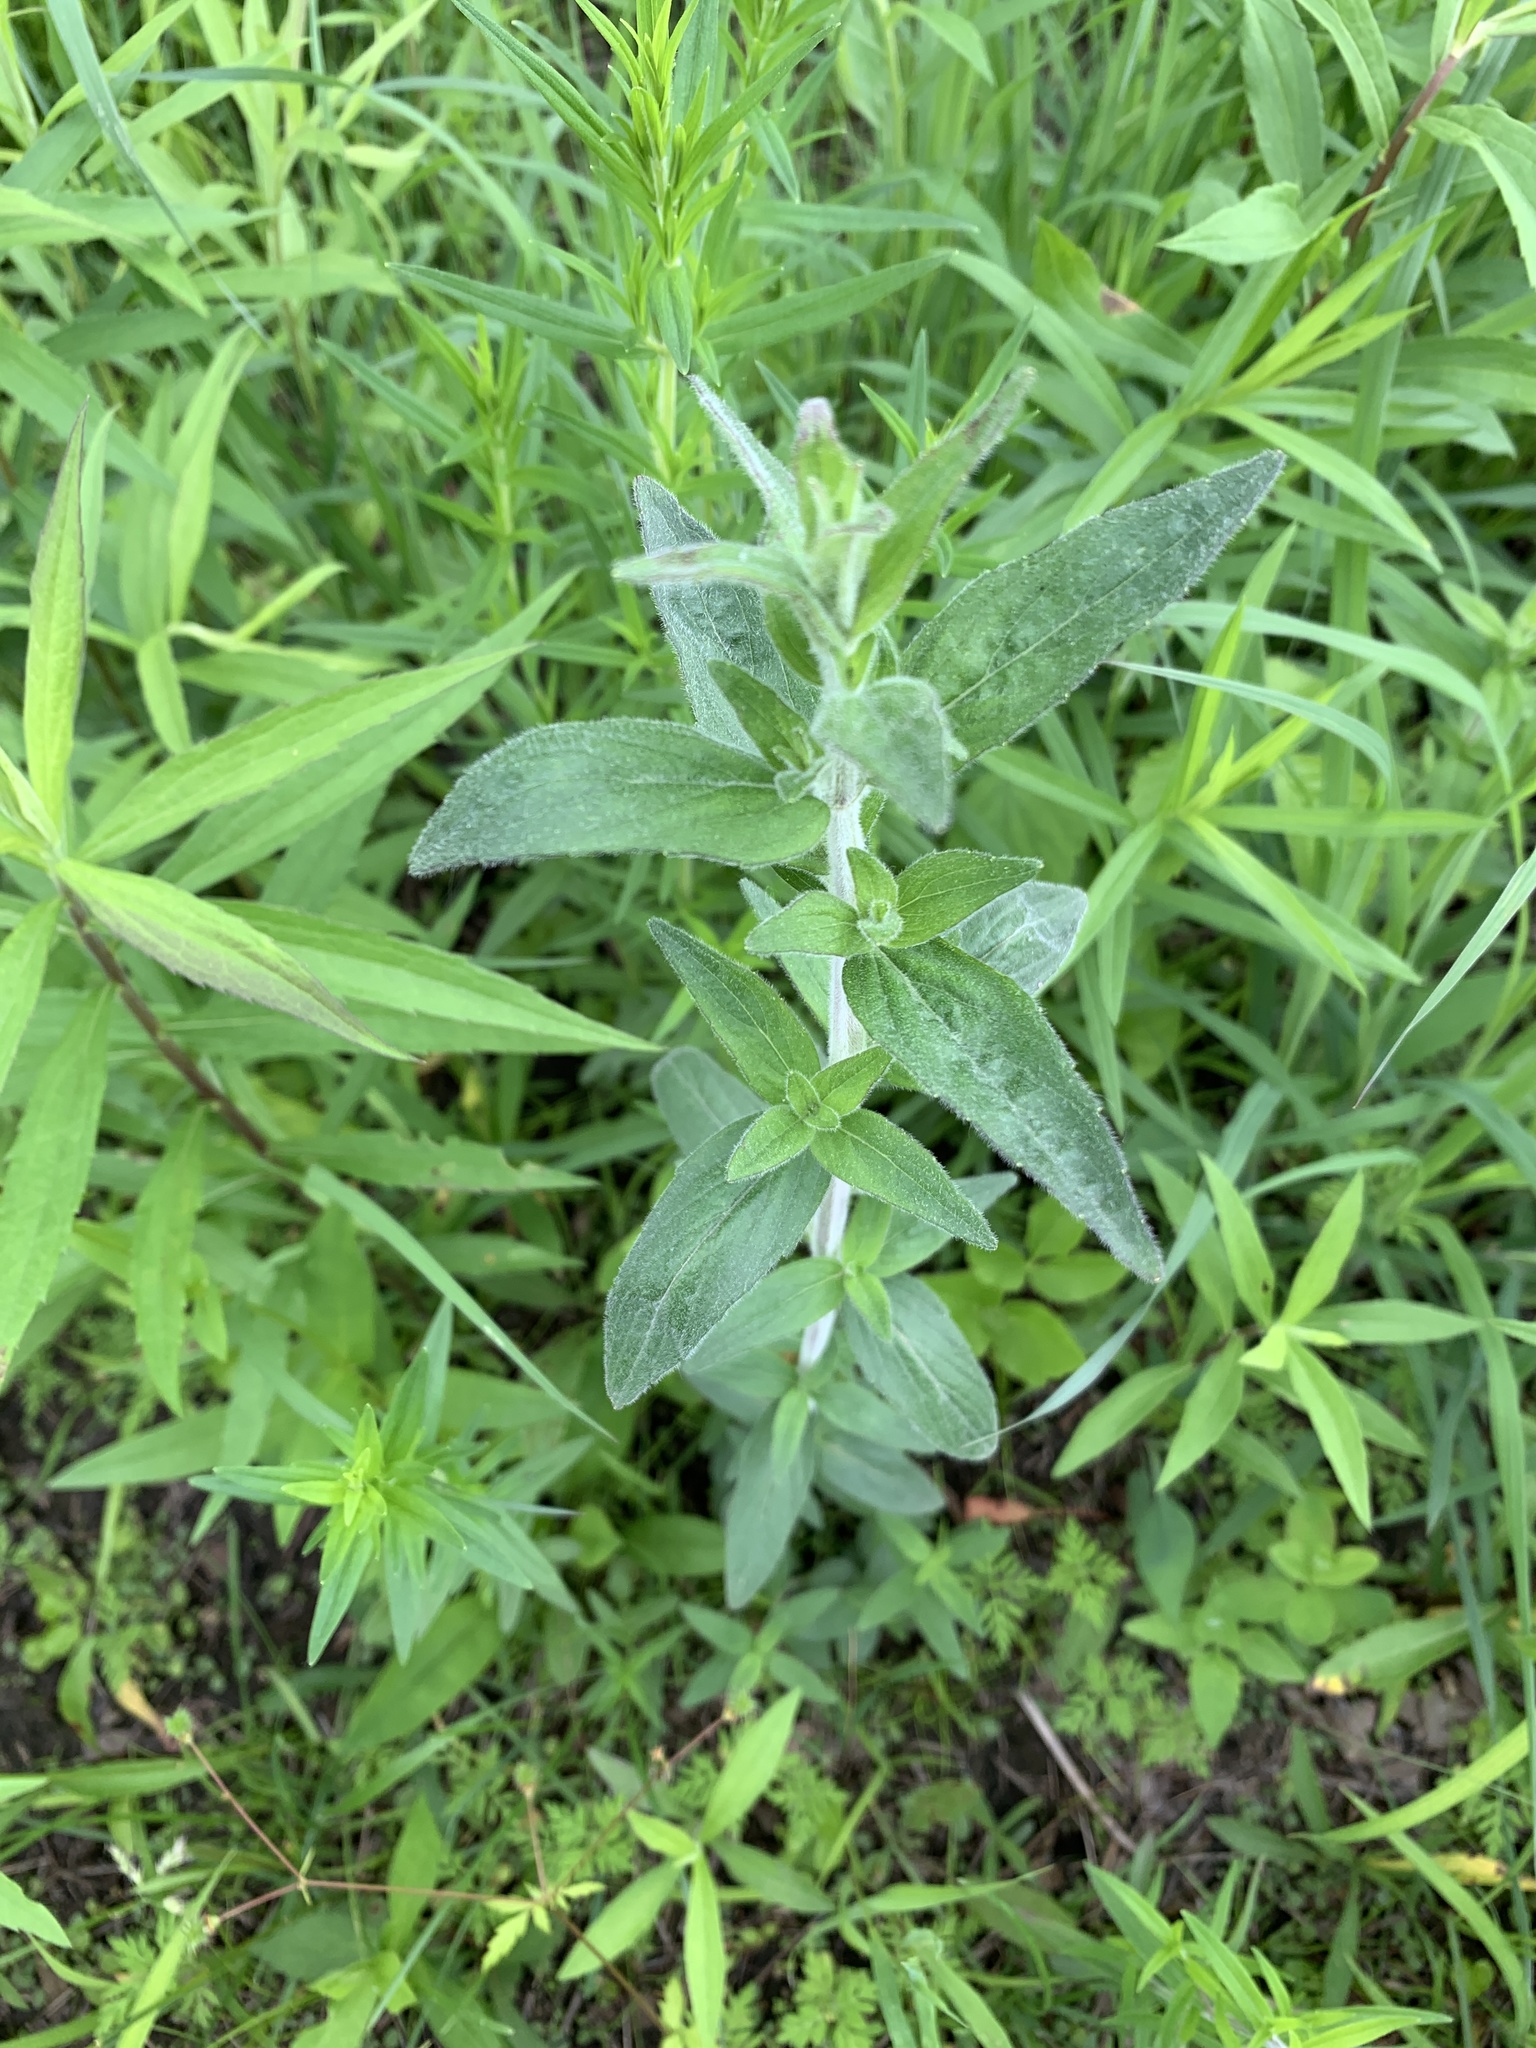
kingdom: Plantae
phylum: Tracheophyta
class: Magnoliopsida
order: Lamiales
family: Lamiaceae
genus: Pycnanthemum
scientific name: Pycnanthemum verticillatum
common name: Whorled mountain-mint
